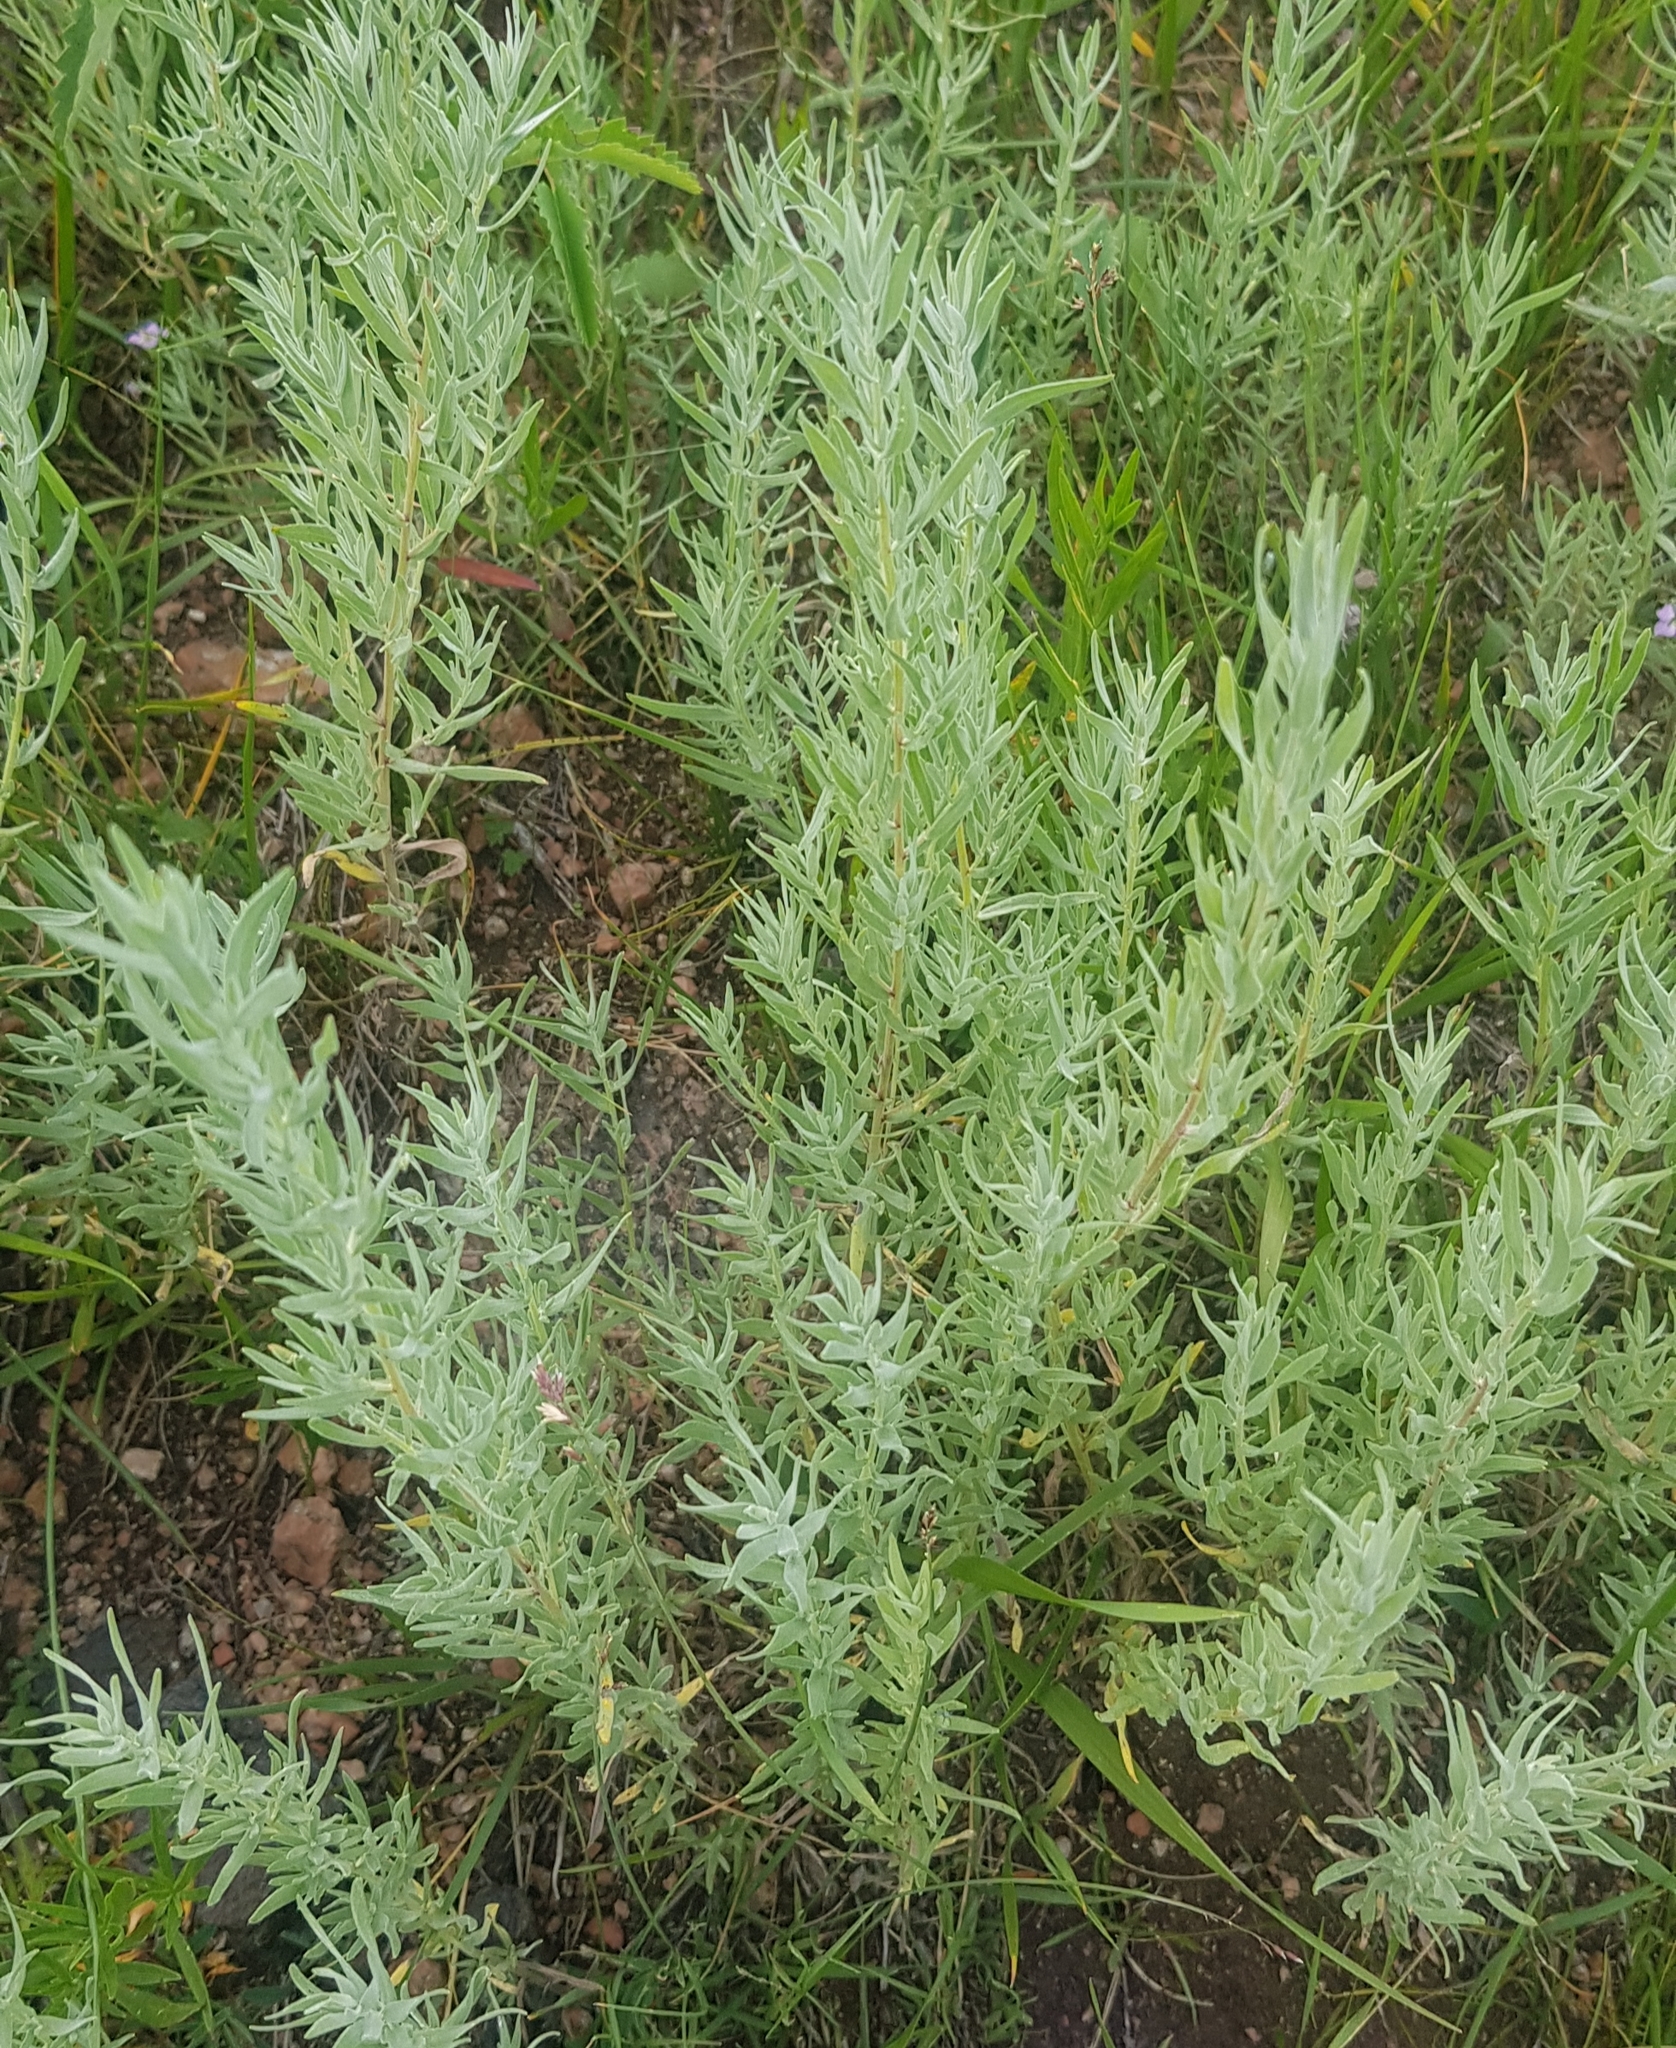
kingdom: Plantae
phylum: Tracheophyta
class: Magnoliopsida
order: Asterales
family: Asteraceae
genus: Artemisia
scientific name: Artemisia glauca
